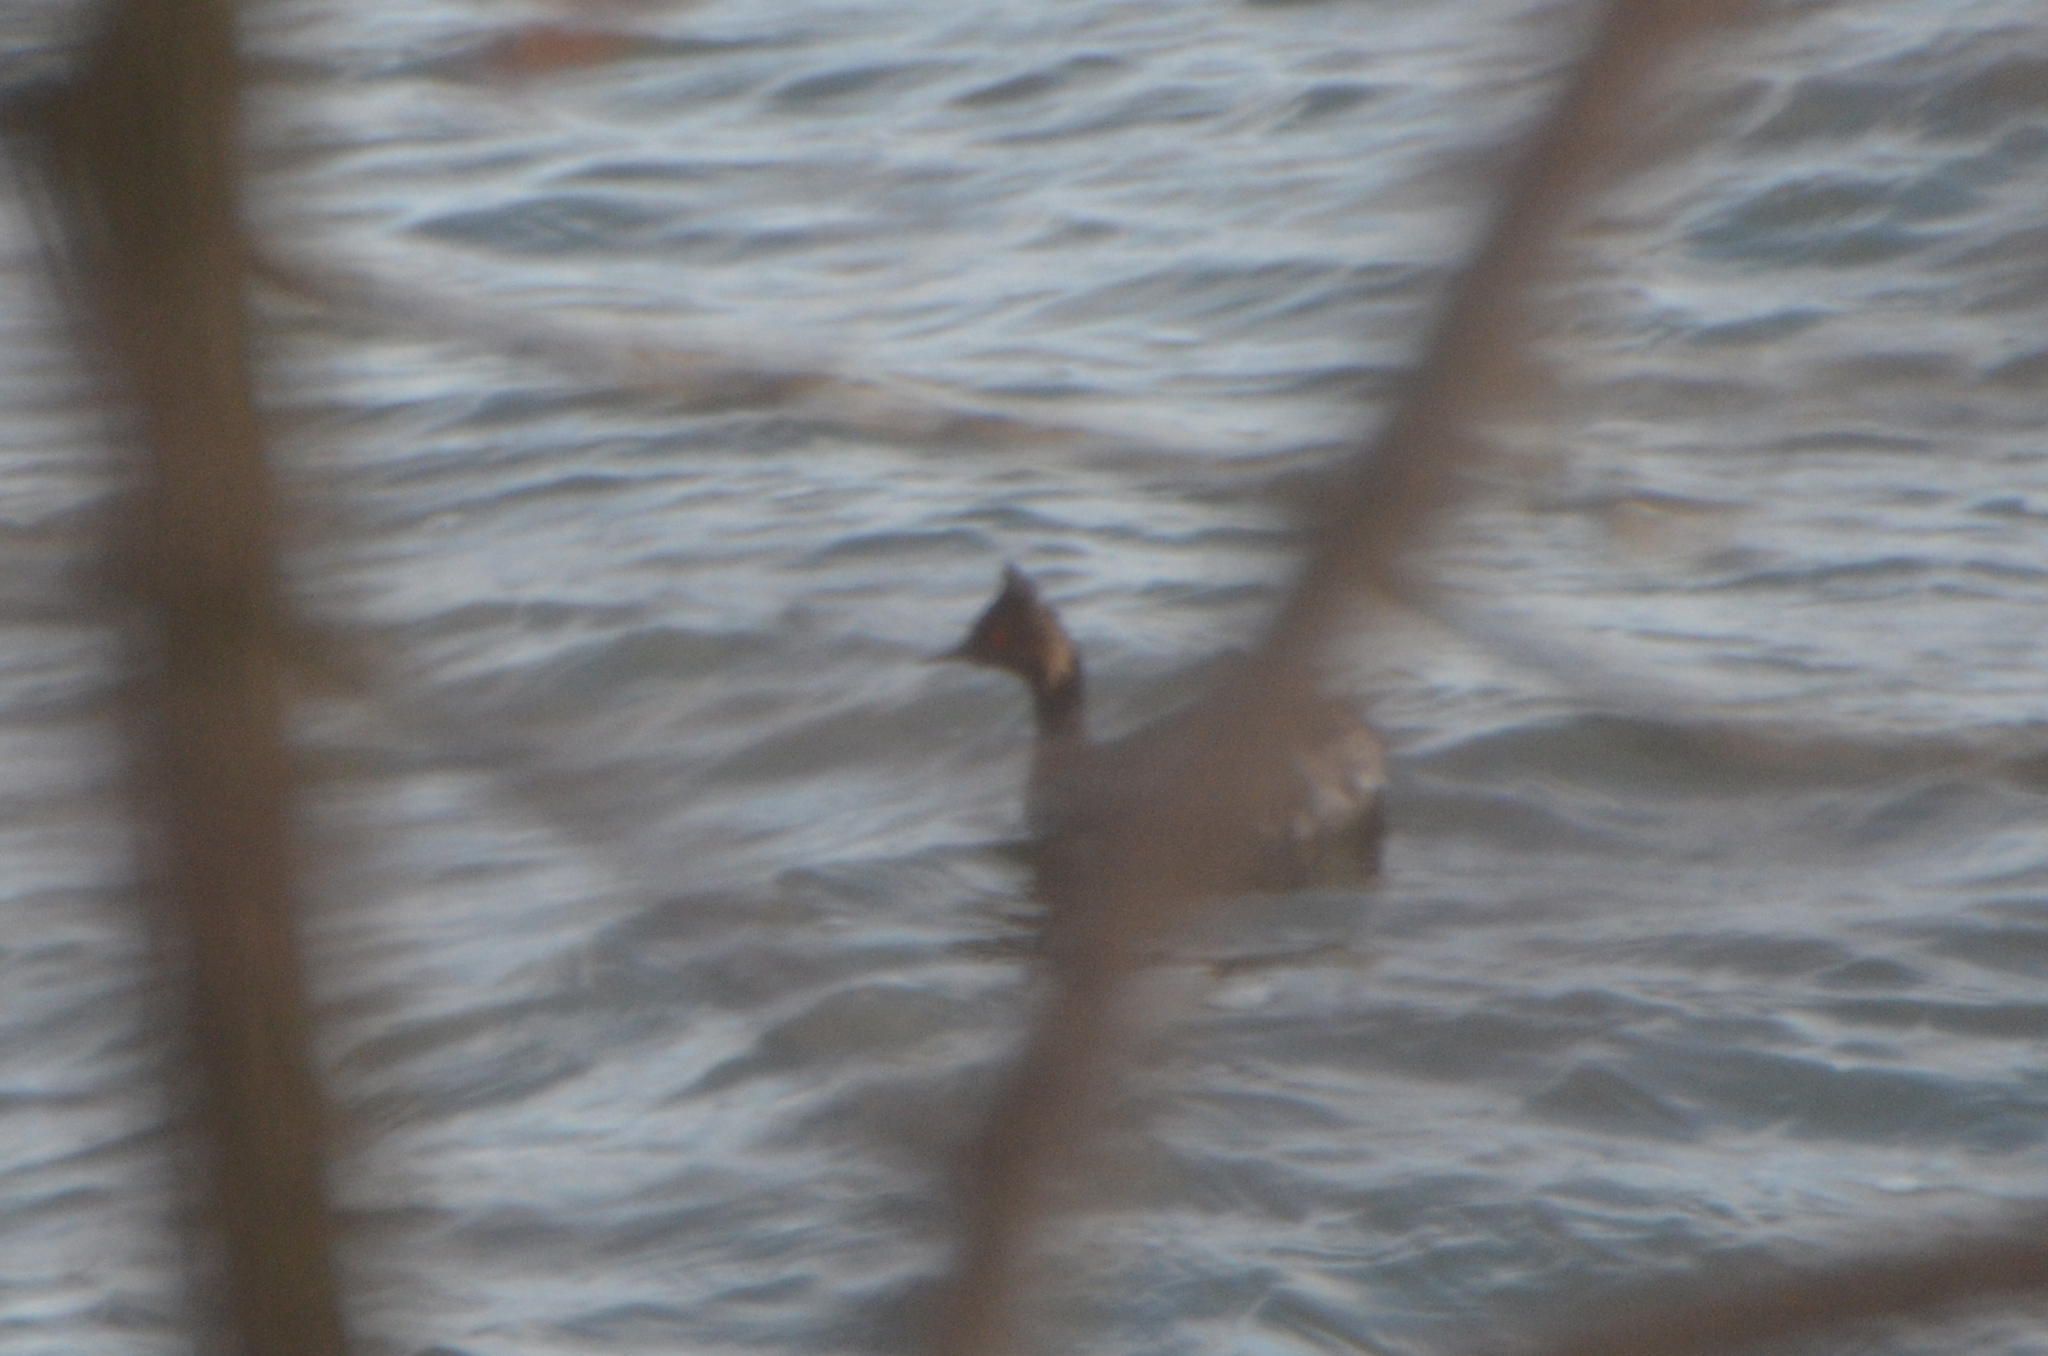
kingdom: Animalia
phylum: Chordata
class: Aves
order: Podicipediformes
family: Podicipedidae
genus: Podiceps
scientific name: Podiceps nigricollis
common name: Black-necked grebe
